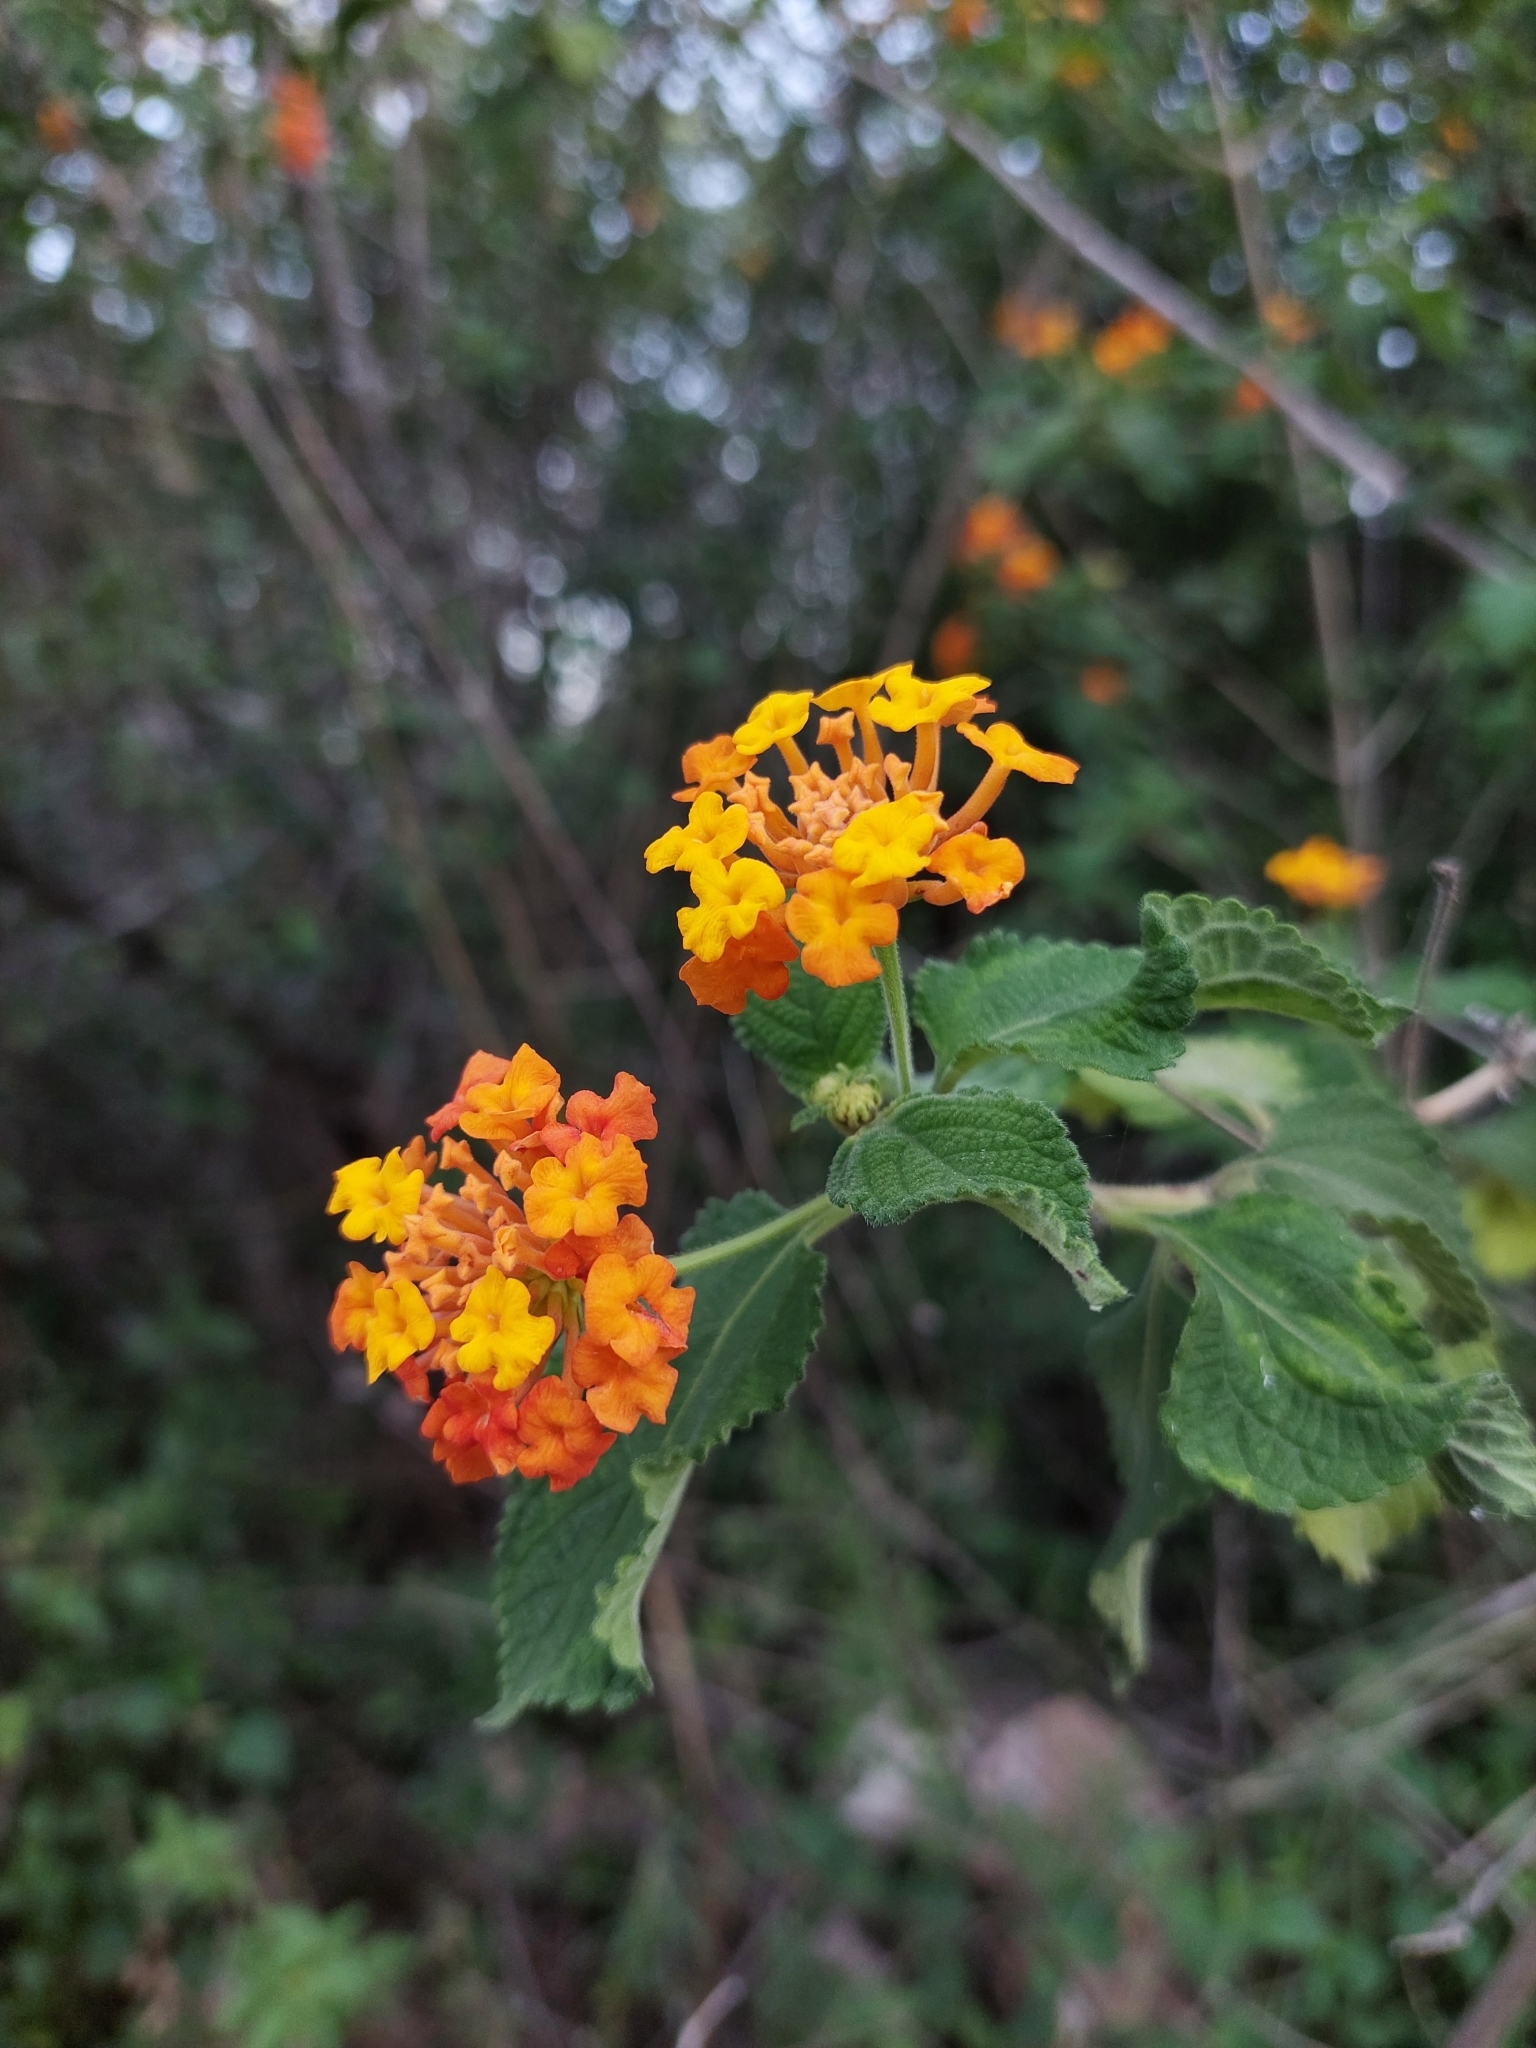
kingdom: Plantae
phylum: Tracheophyta
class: Magnoliopsida
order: Lamiales
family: Verbenaceae
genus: Lantana
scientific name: Lantana camara
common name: Lantana
